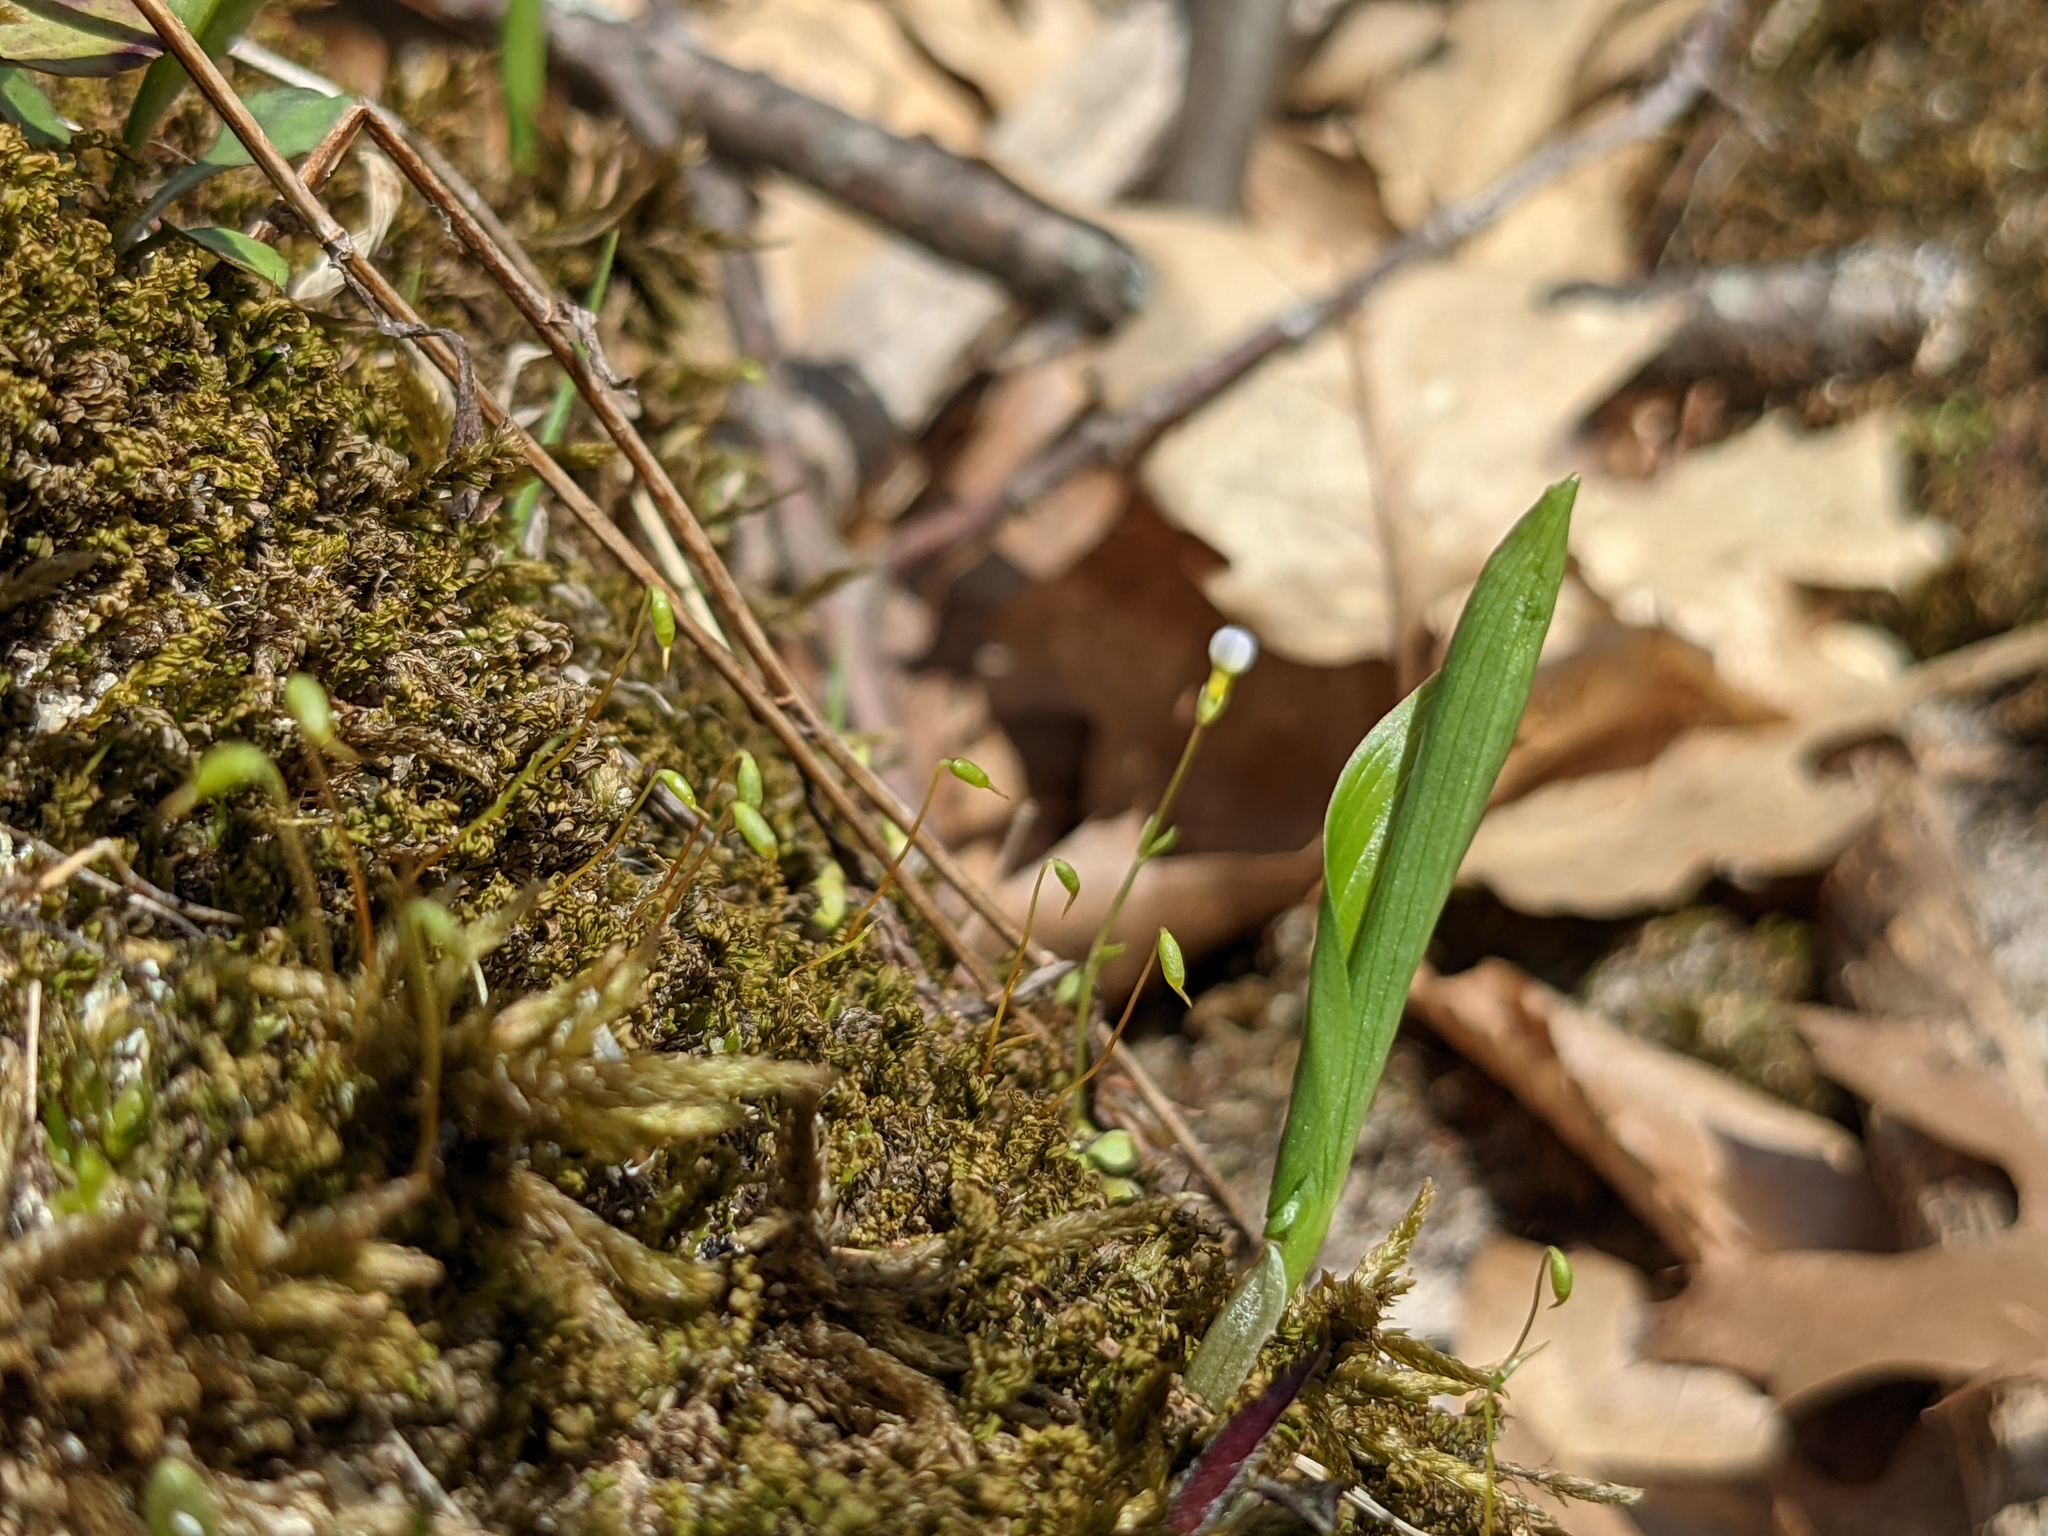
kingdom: Plantae
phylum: Tracheophyta
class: Liliopsida
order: Asparagales
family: Asparagaceae
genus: Maianthemum
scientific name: Maianthemum canadense
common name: False lily-of-the-valley
